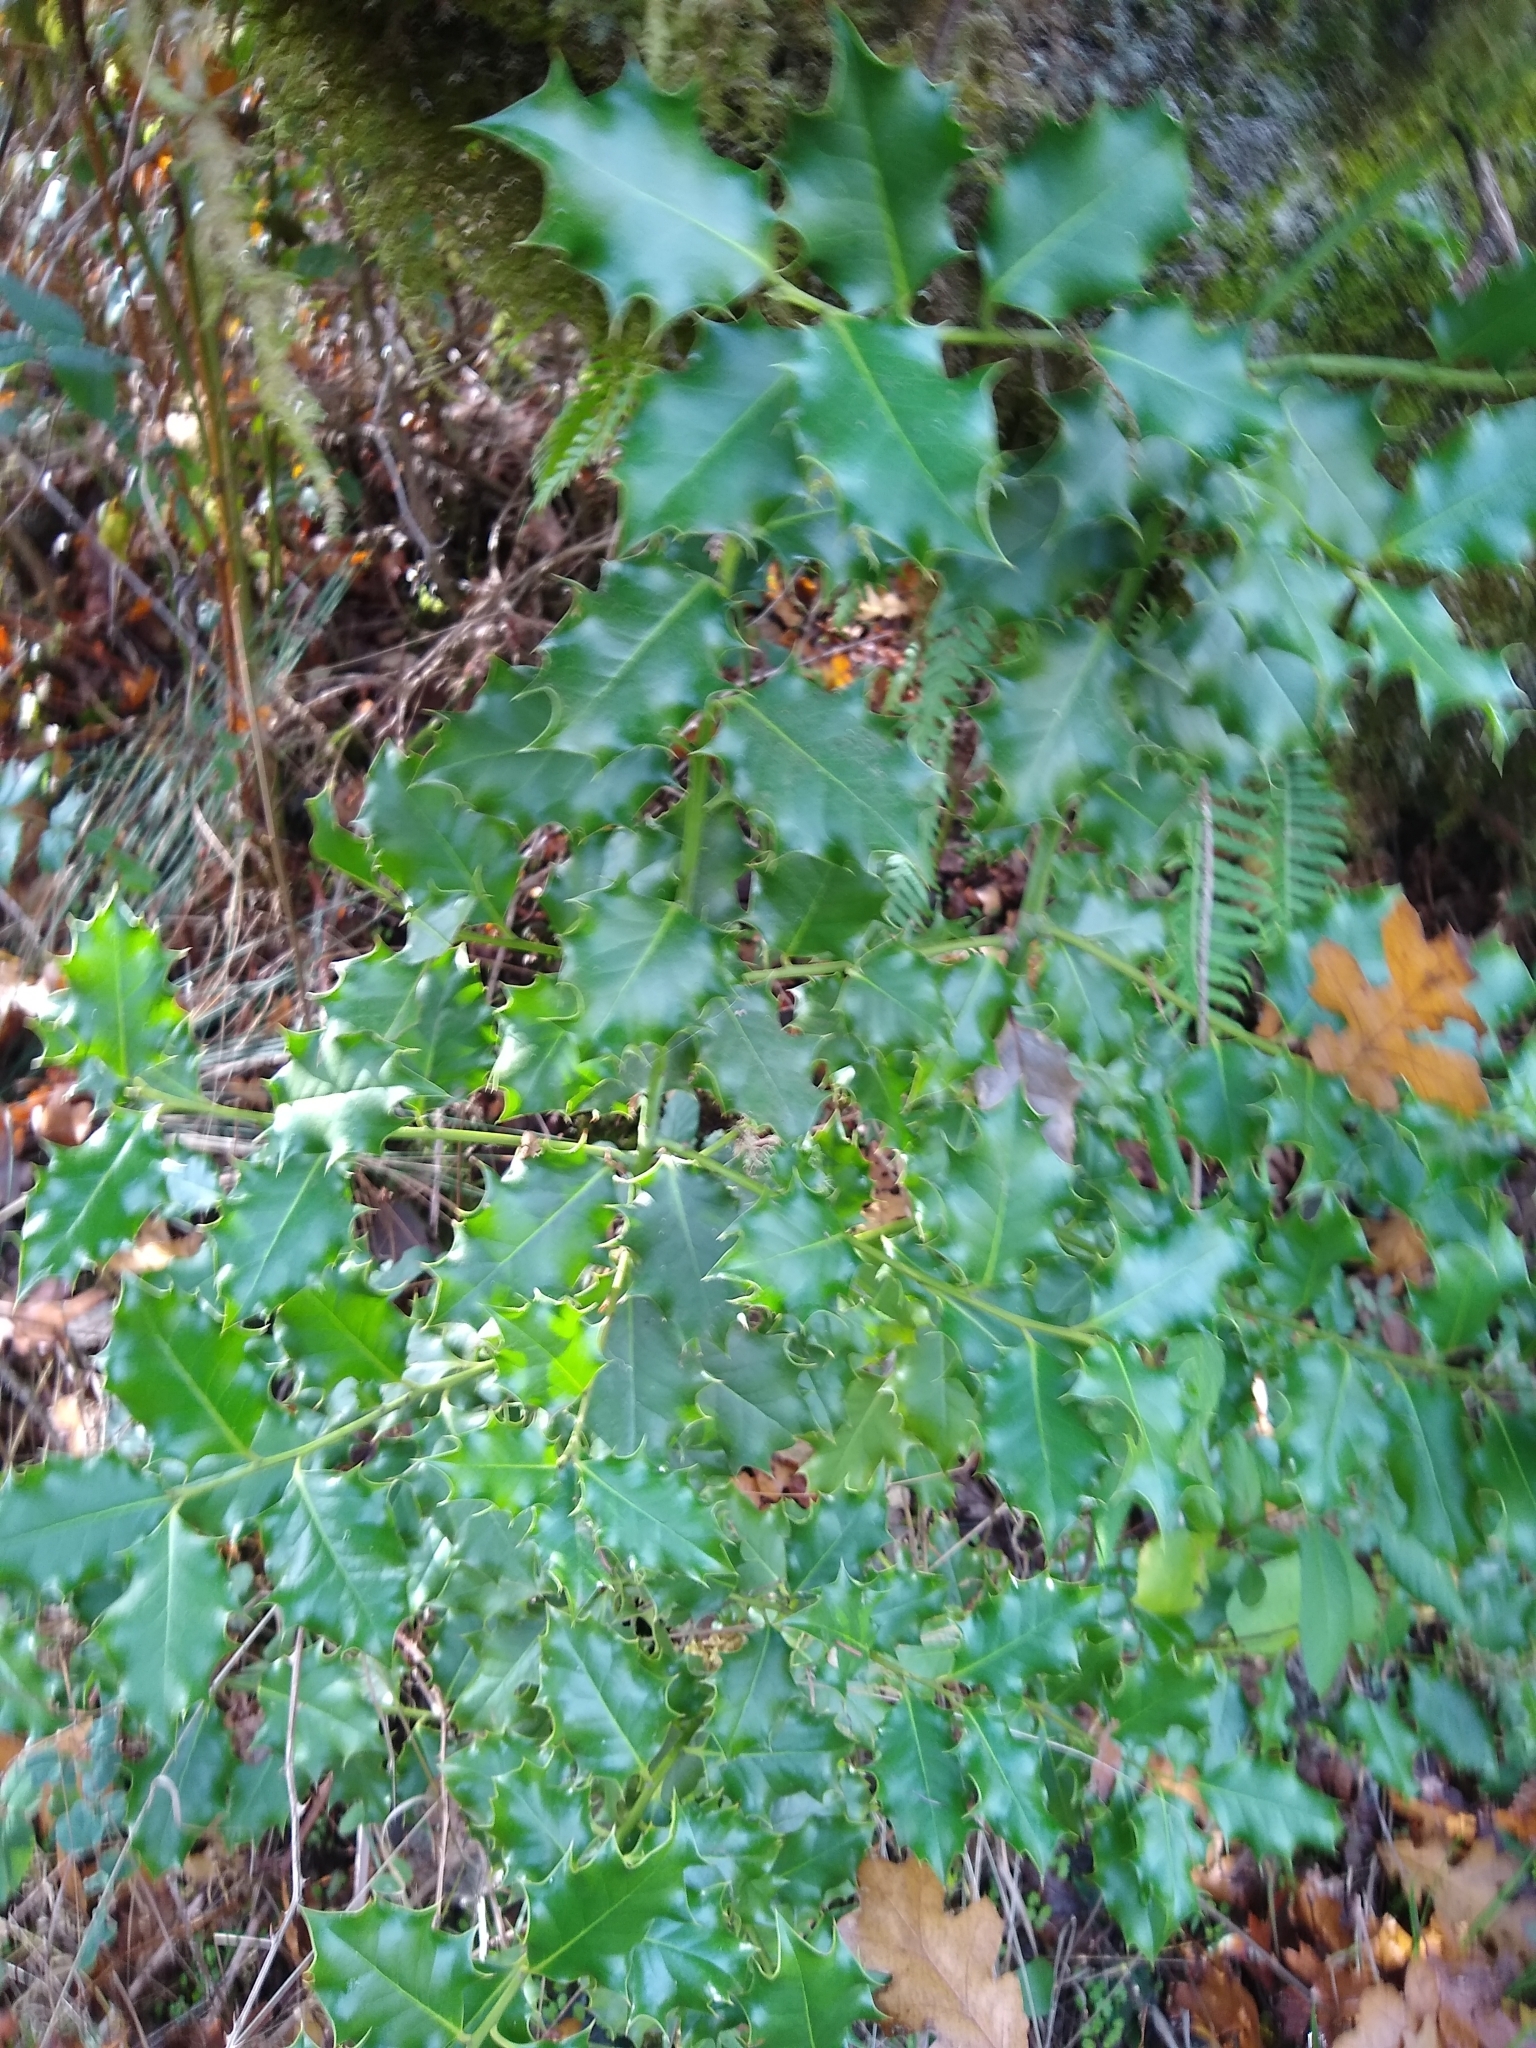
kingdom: Plantae
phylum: Tracheophyta
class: Magnoliopsida
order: Aquifoliales
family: Aquifoliaceae
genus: Ilex
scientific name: Ilex aquifolium
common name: English holly
